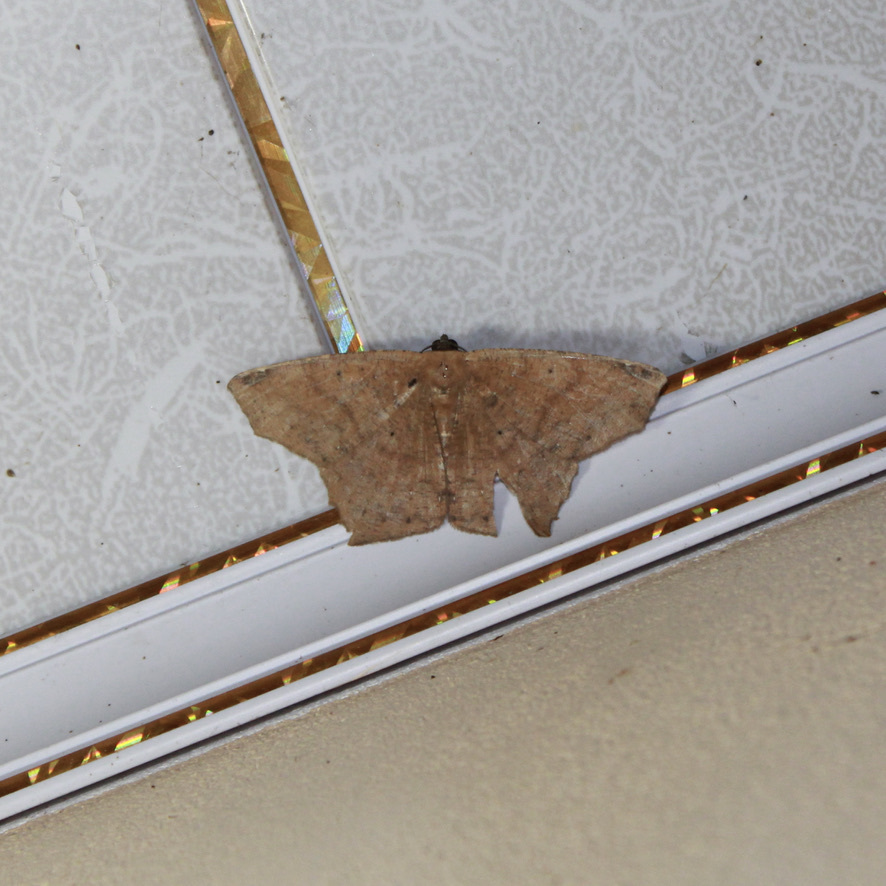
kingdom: Animalia
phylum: Arthropoda
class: Insecta
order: Lepidoptera
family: Geometridae
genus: Paragonia
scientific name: Paragonia cruraria
